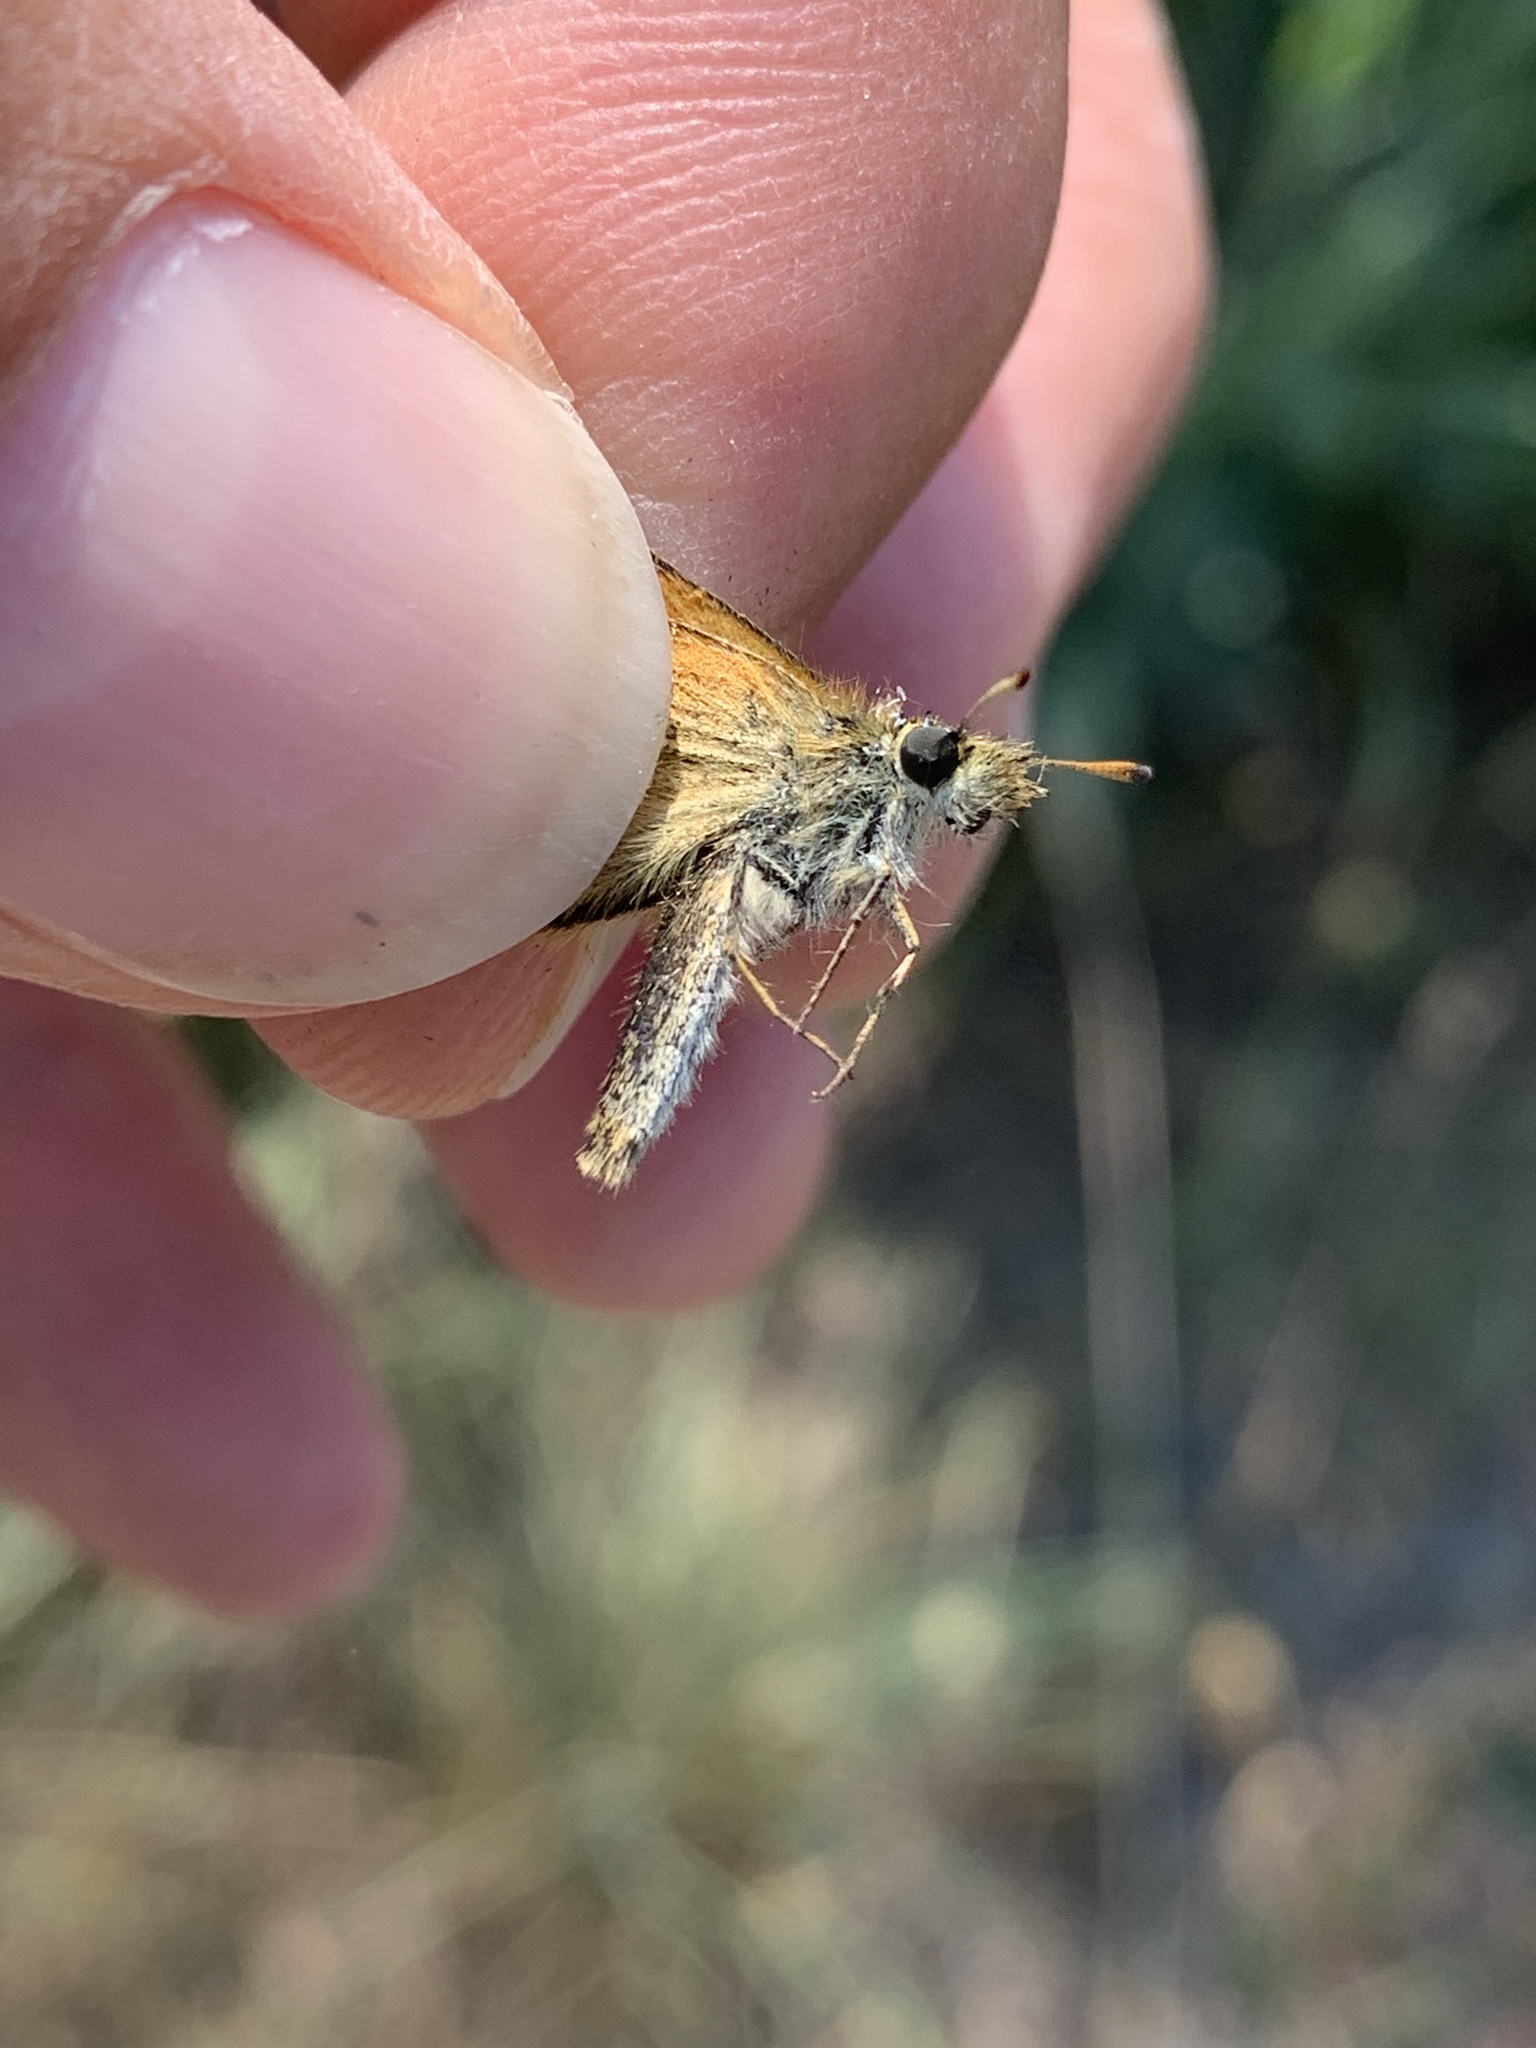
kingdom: Animalia
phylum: Arthropoda
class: Insecta
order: Lepidoptera
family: Hesperiidae
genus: Thymelicus
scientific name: Thymelicus lineola
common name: Essex skipper
